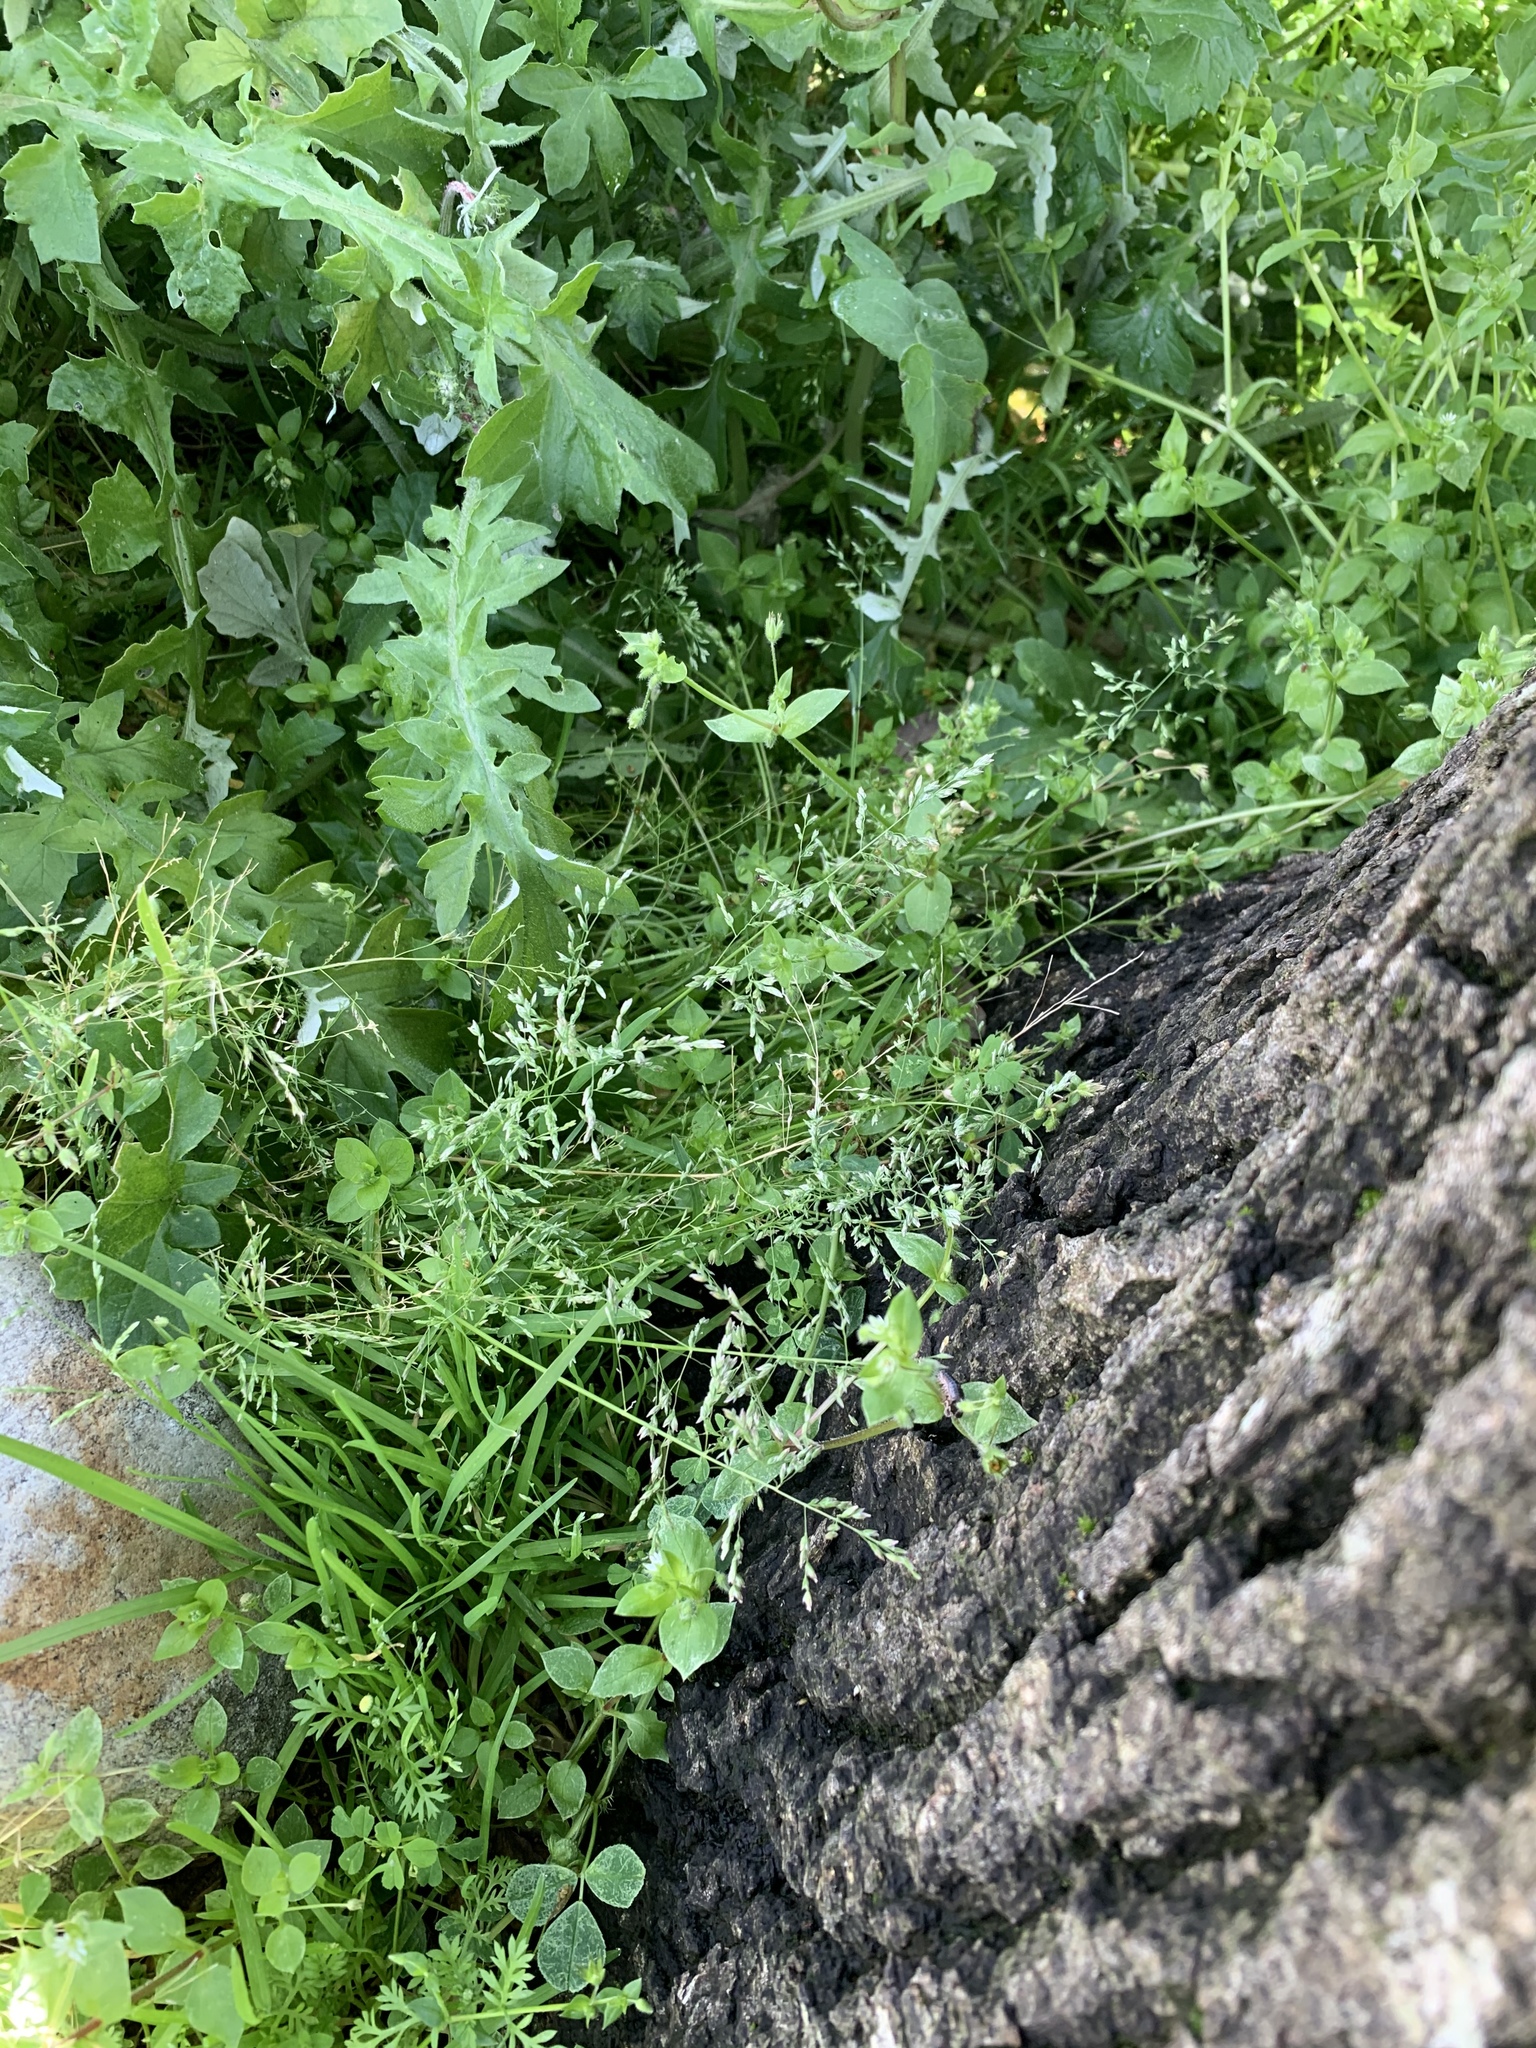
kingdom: Plantae
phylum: Tracheophyta
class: Liliopsida
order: Poales
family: Poaceae
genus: Poa
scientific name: Poa annua
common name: Annual bluegrass
